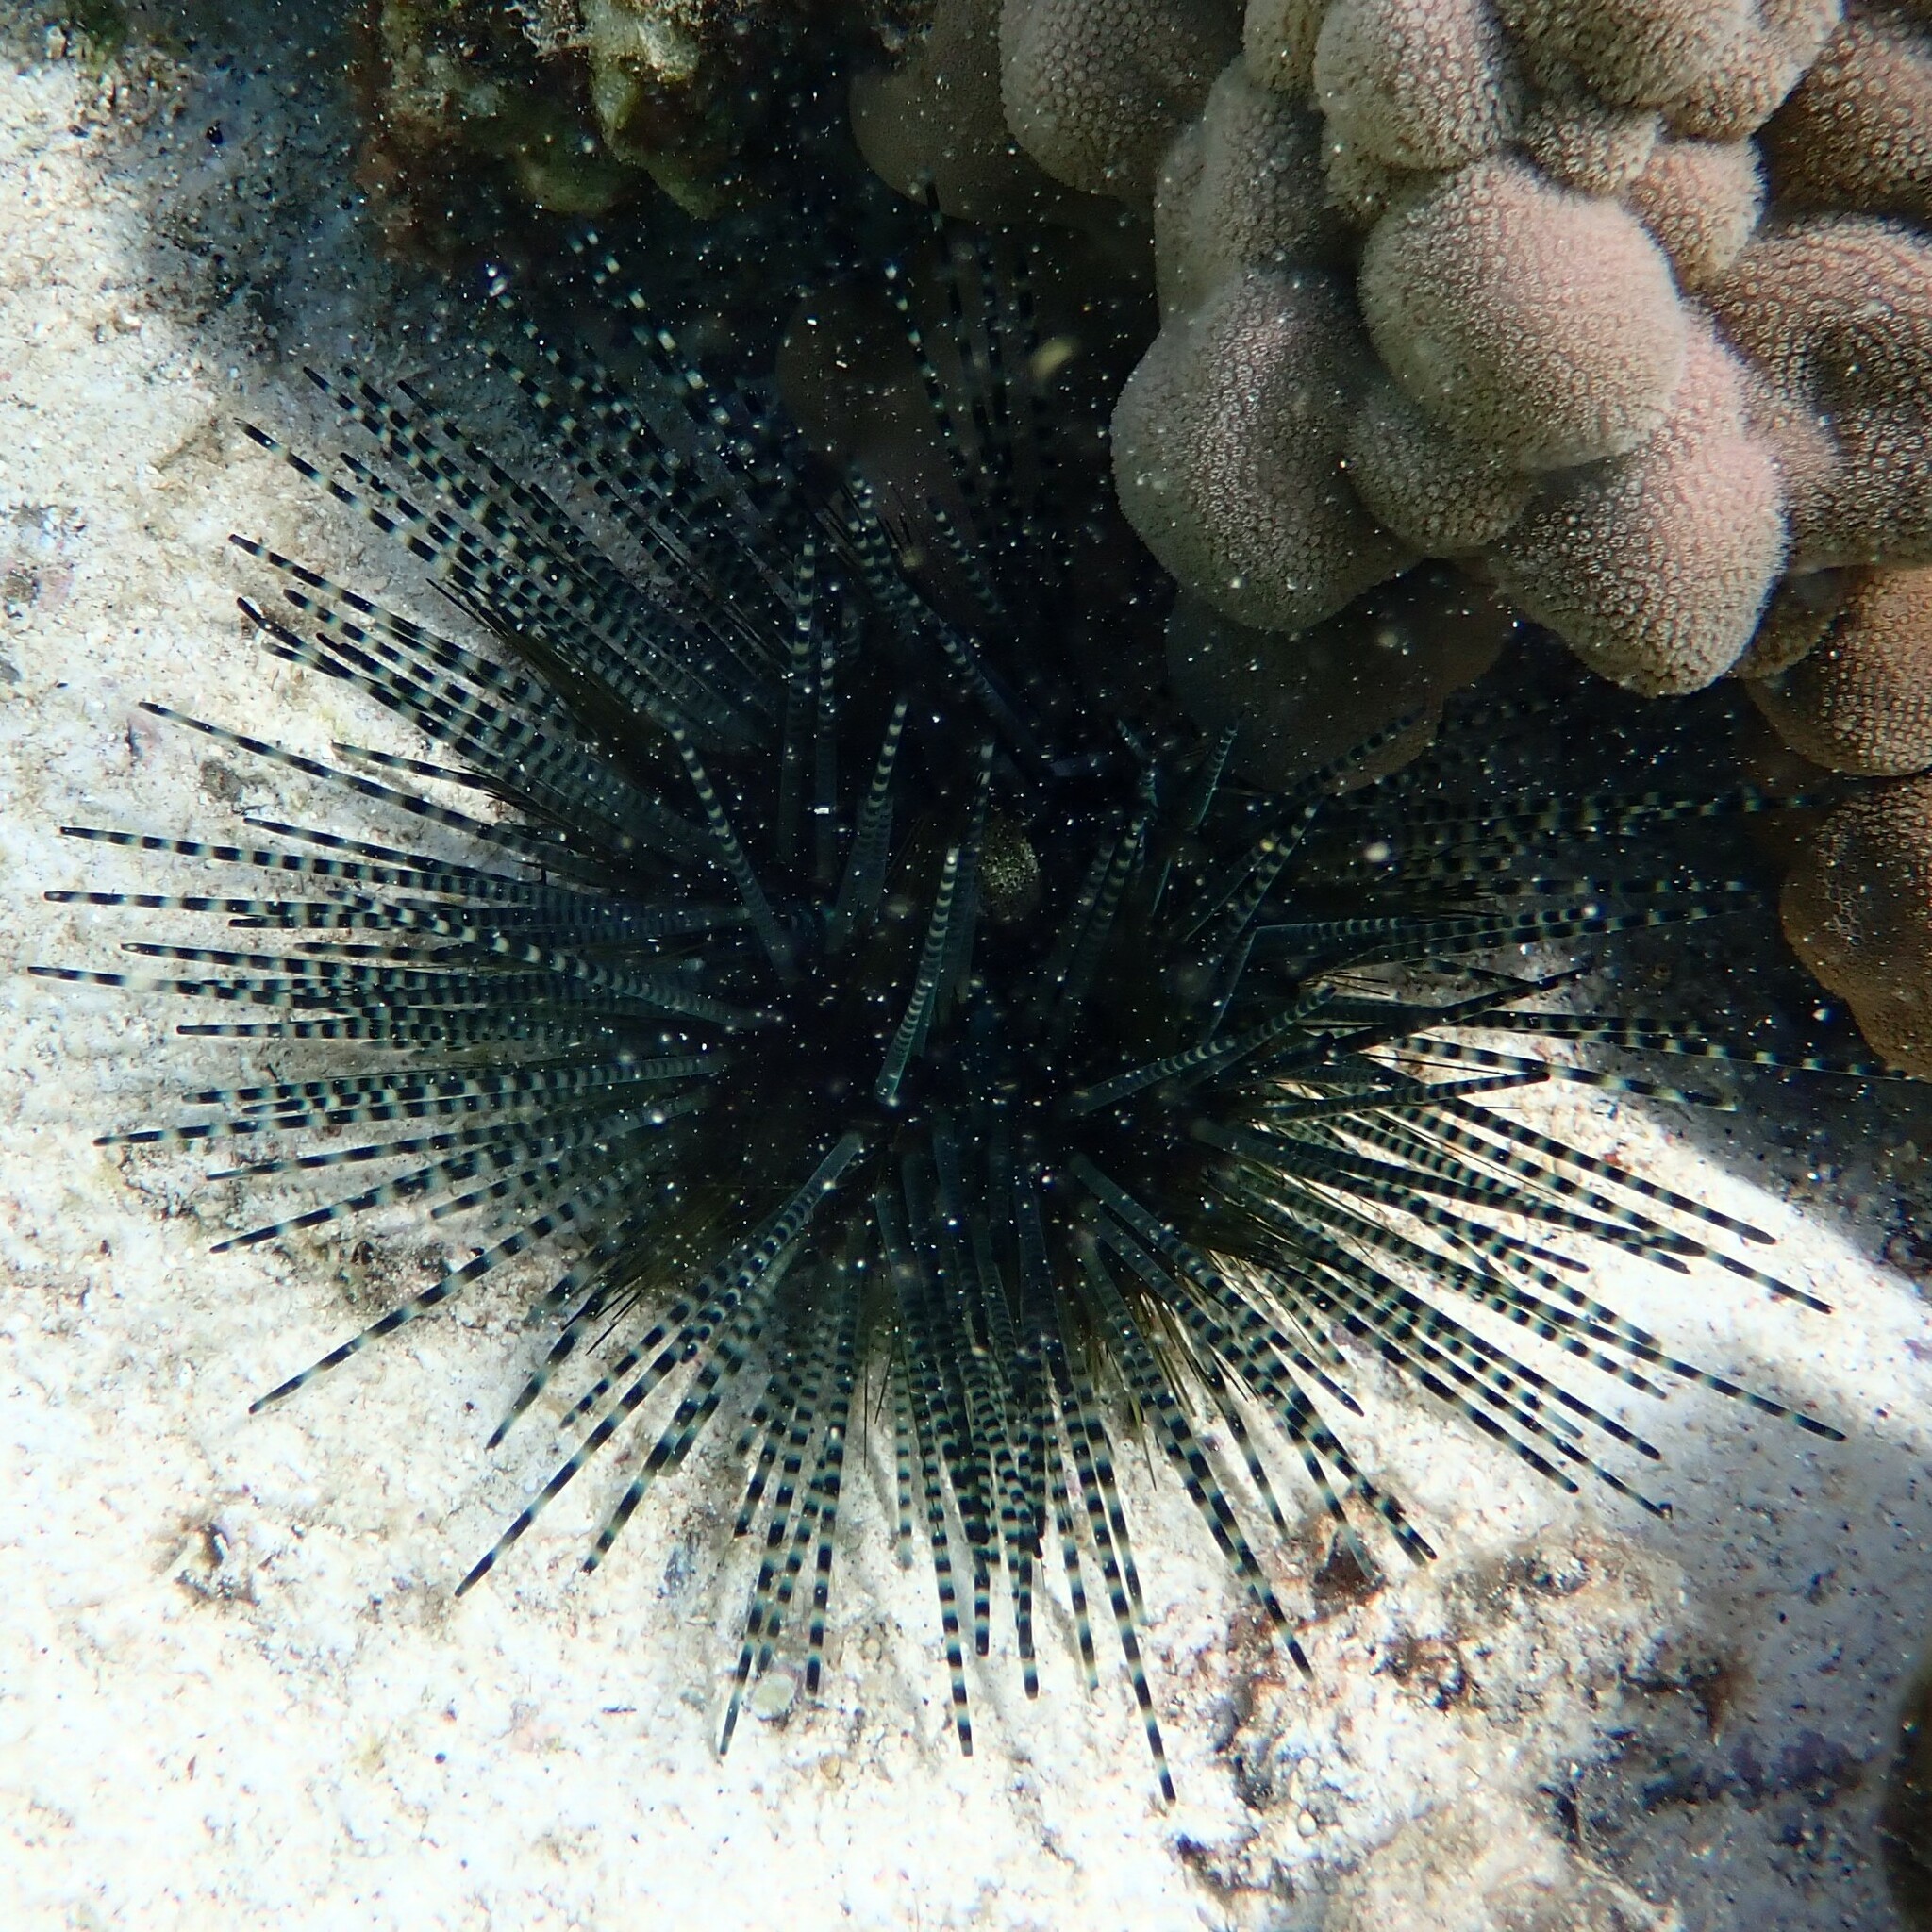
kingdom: Animalia
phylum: Echinodermata
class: Echinoidea
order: Diadematoida
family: Diadematidae
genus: Echinothrix
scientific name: Echinothrix calamaris
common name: Banded sea urchin
